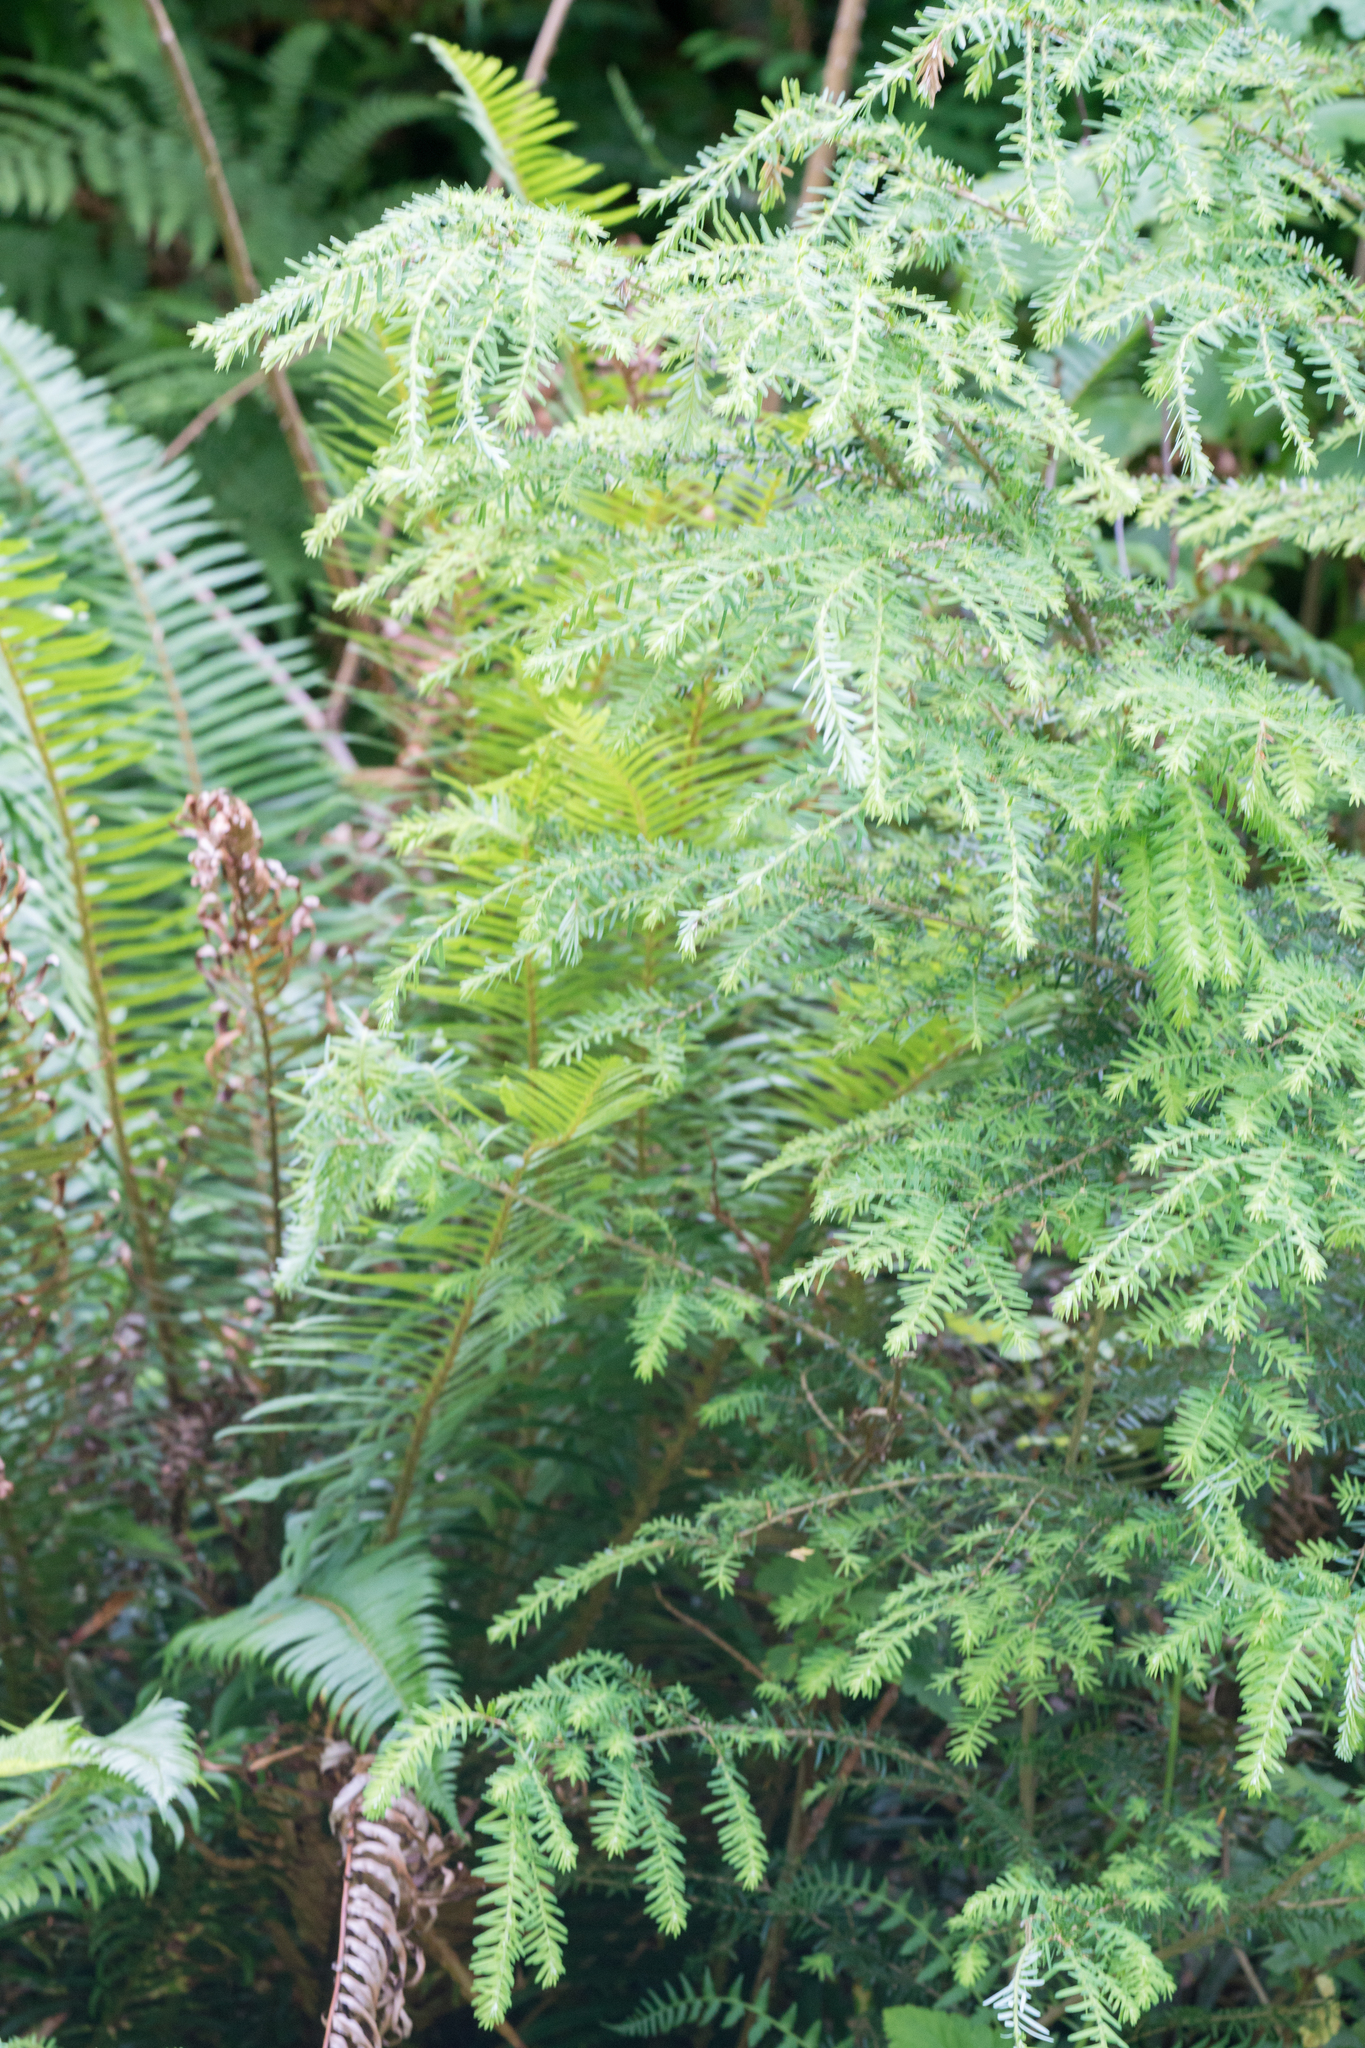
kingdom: Plantae
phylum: Tracheophyta
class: Pinopsida
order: Pinales
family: Pinaceae
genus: Tsuga
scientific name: Tsuga heterophylla
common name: Western hemlock
